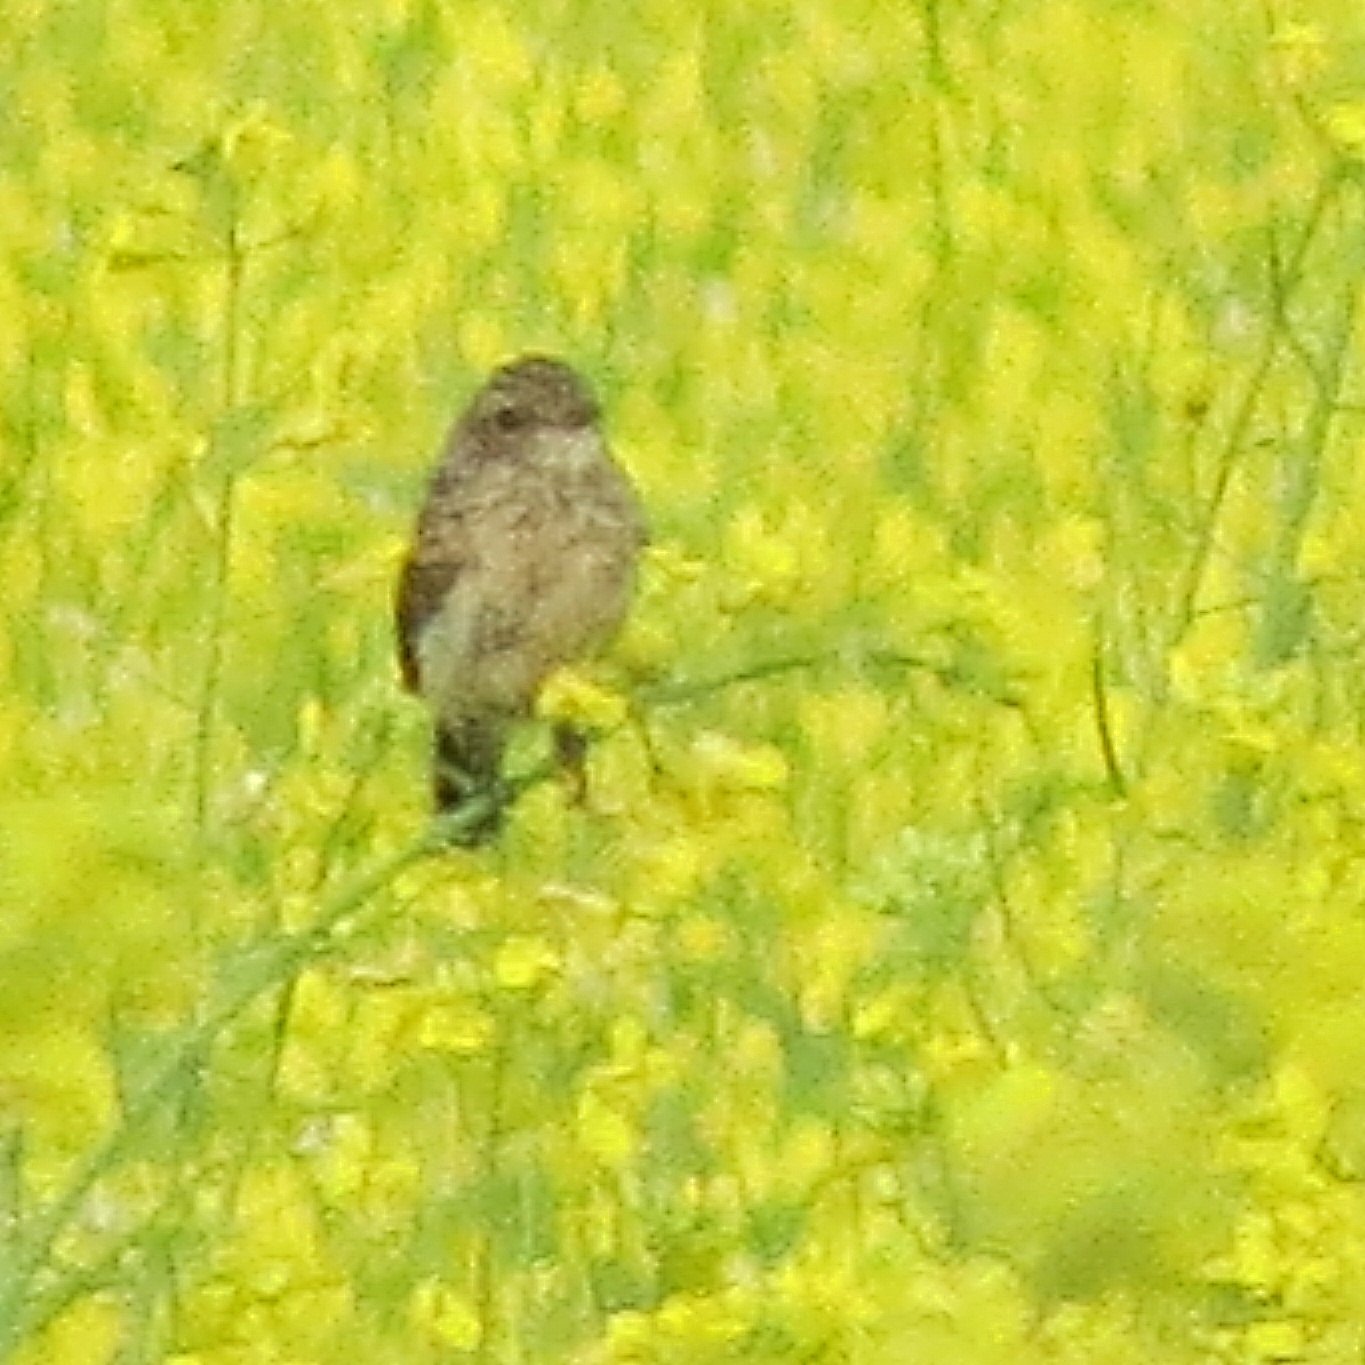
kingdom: Animalia
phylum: Chordata
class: Aves
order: Passeriformes
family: Muscicapidae
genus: Saxicola
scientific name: Saxicola maurus
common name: Siberian stonechat
